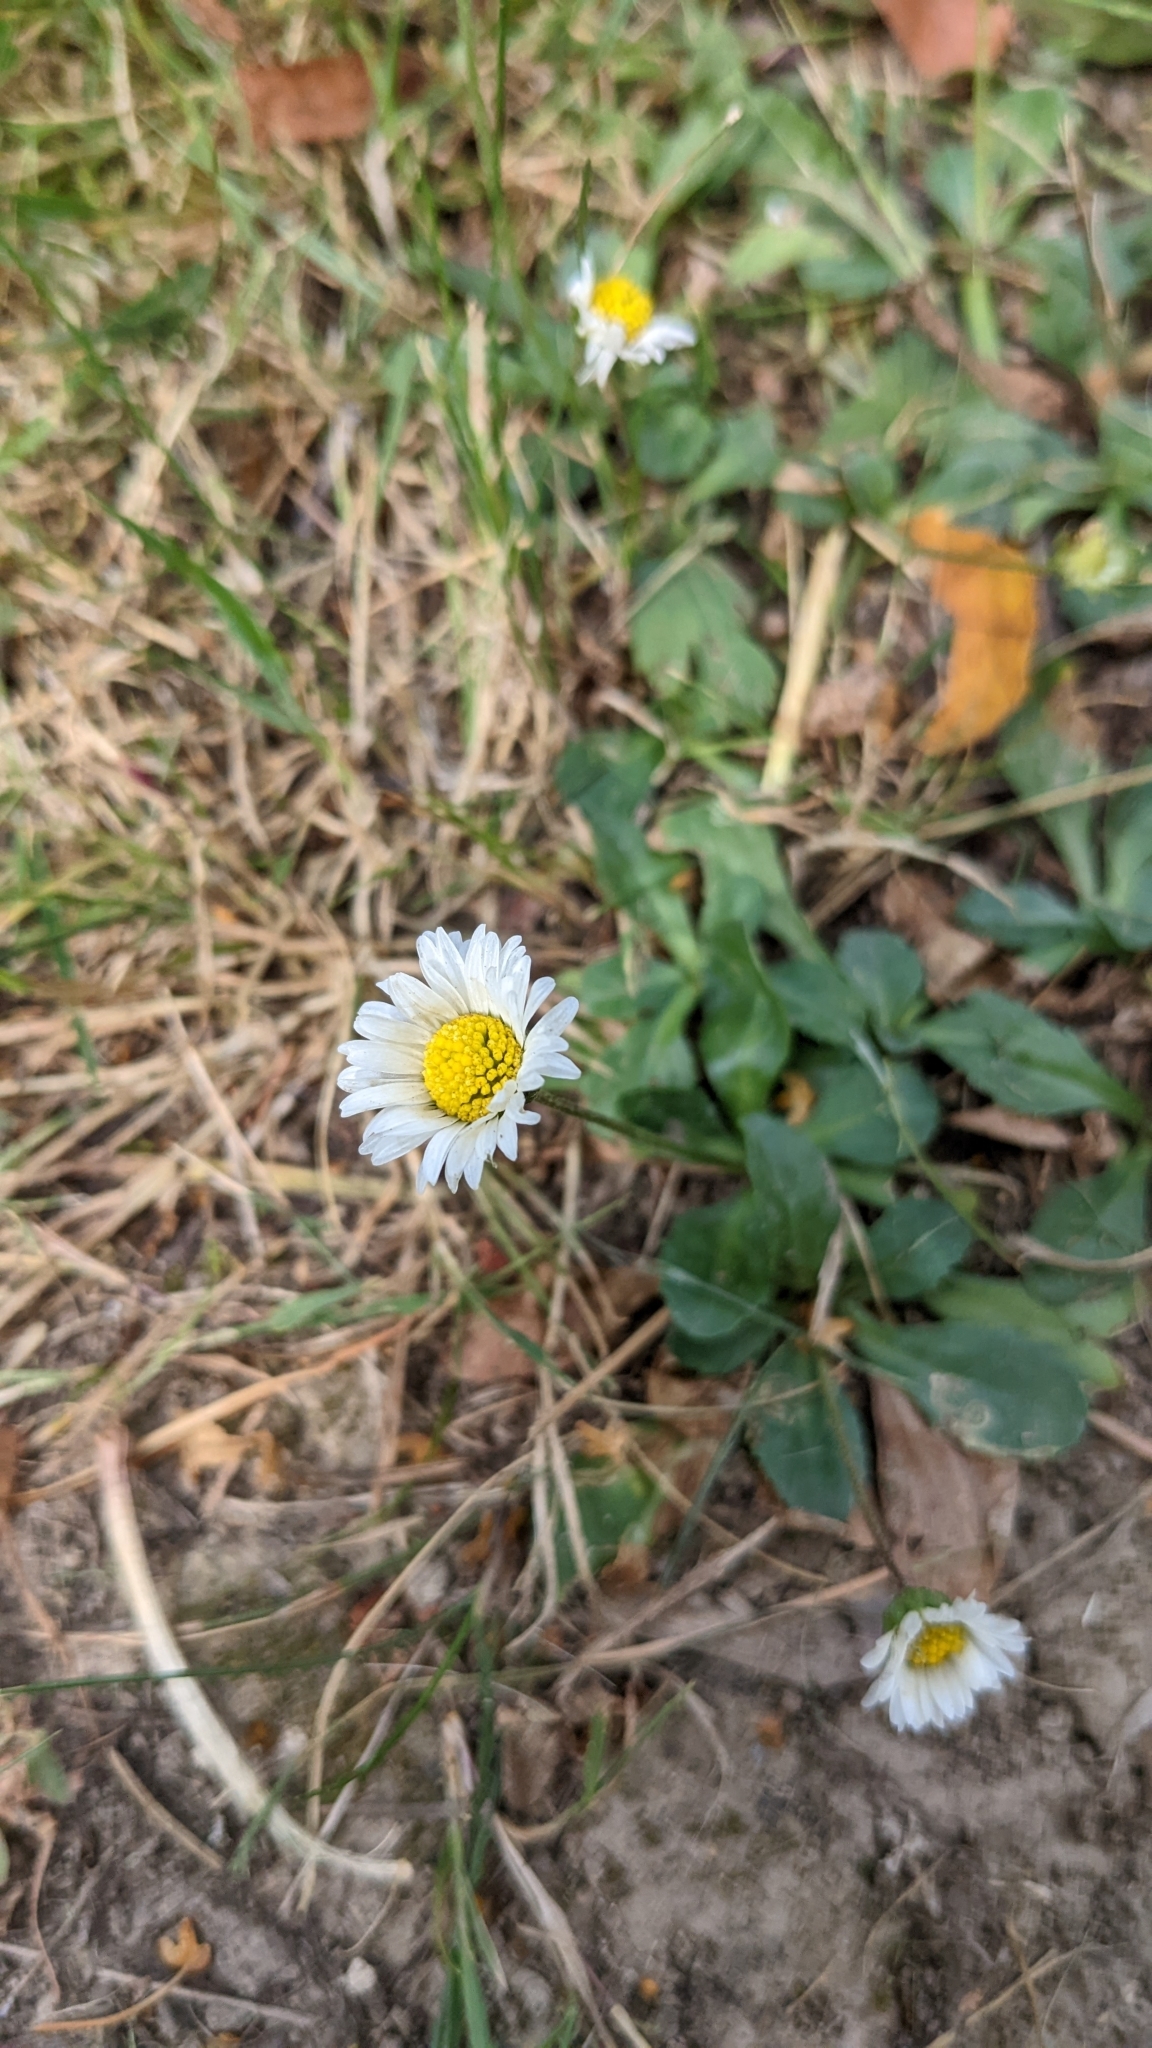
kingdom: Plantae
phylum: Tracheophyta
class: Magnoliopsida
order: Asterales
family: Asteraceae
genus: Bellis
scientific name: Bellis perennis
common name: Lawndaisy
